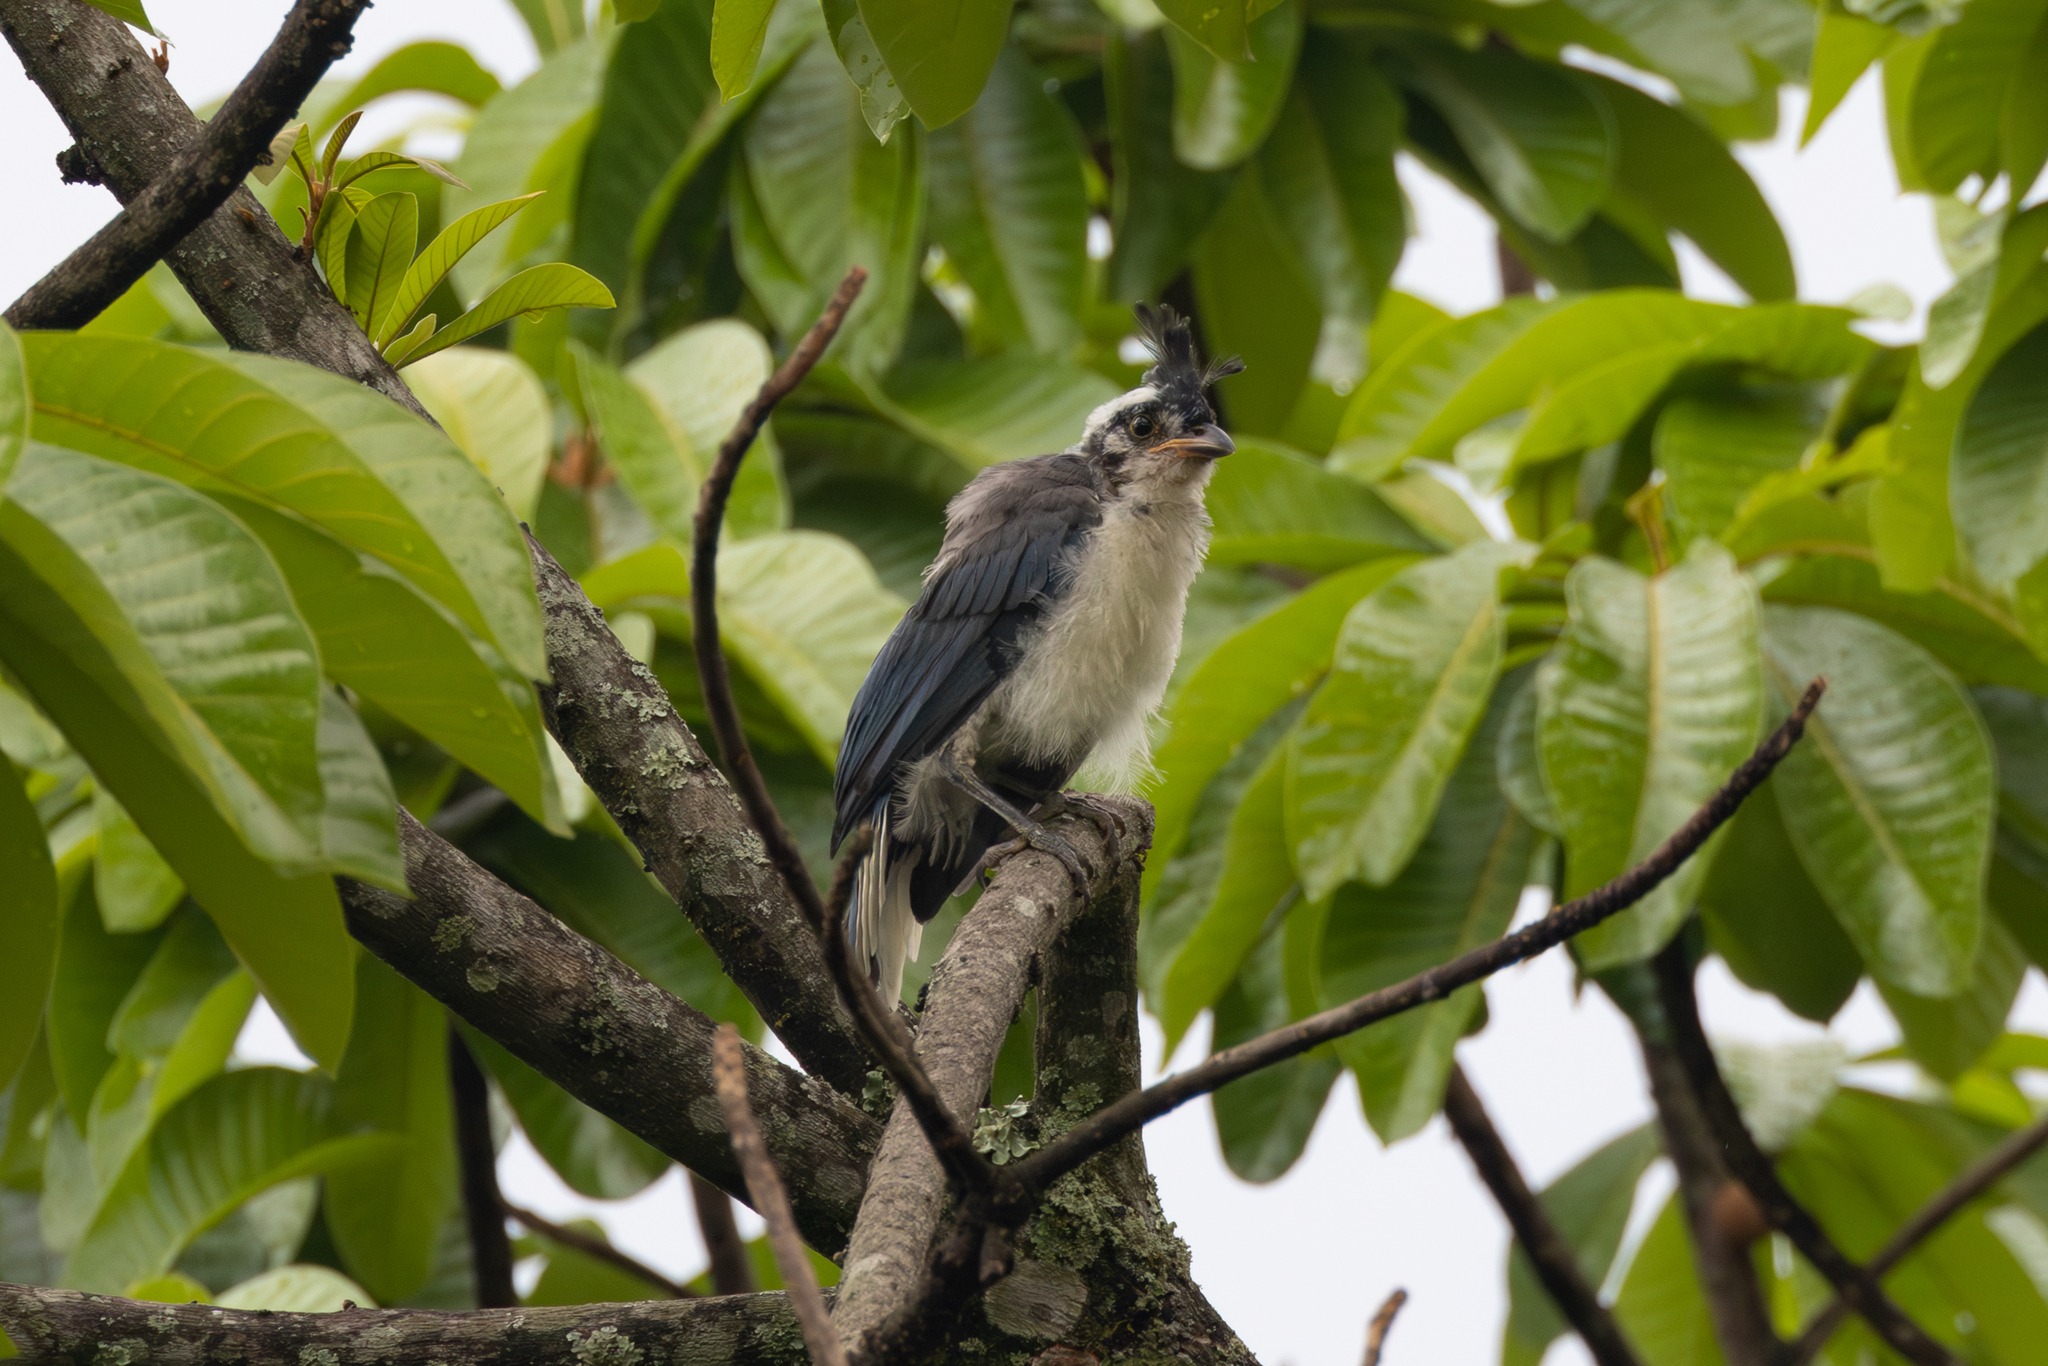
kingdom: Animalia
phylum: Chordata
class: Aves
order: Passeriformes
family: Corvidae
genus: Calocitta
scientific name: Calocitta formosa
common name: White-throated magpie-jay
